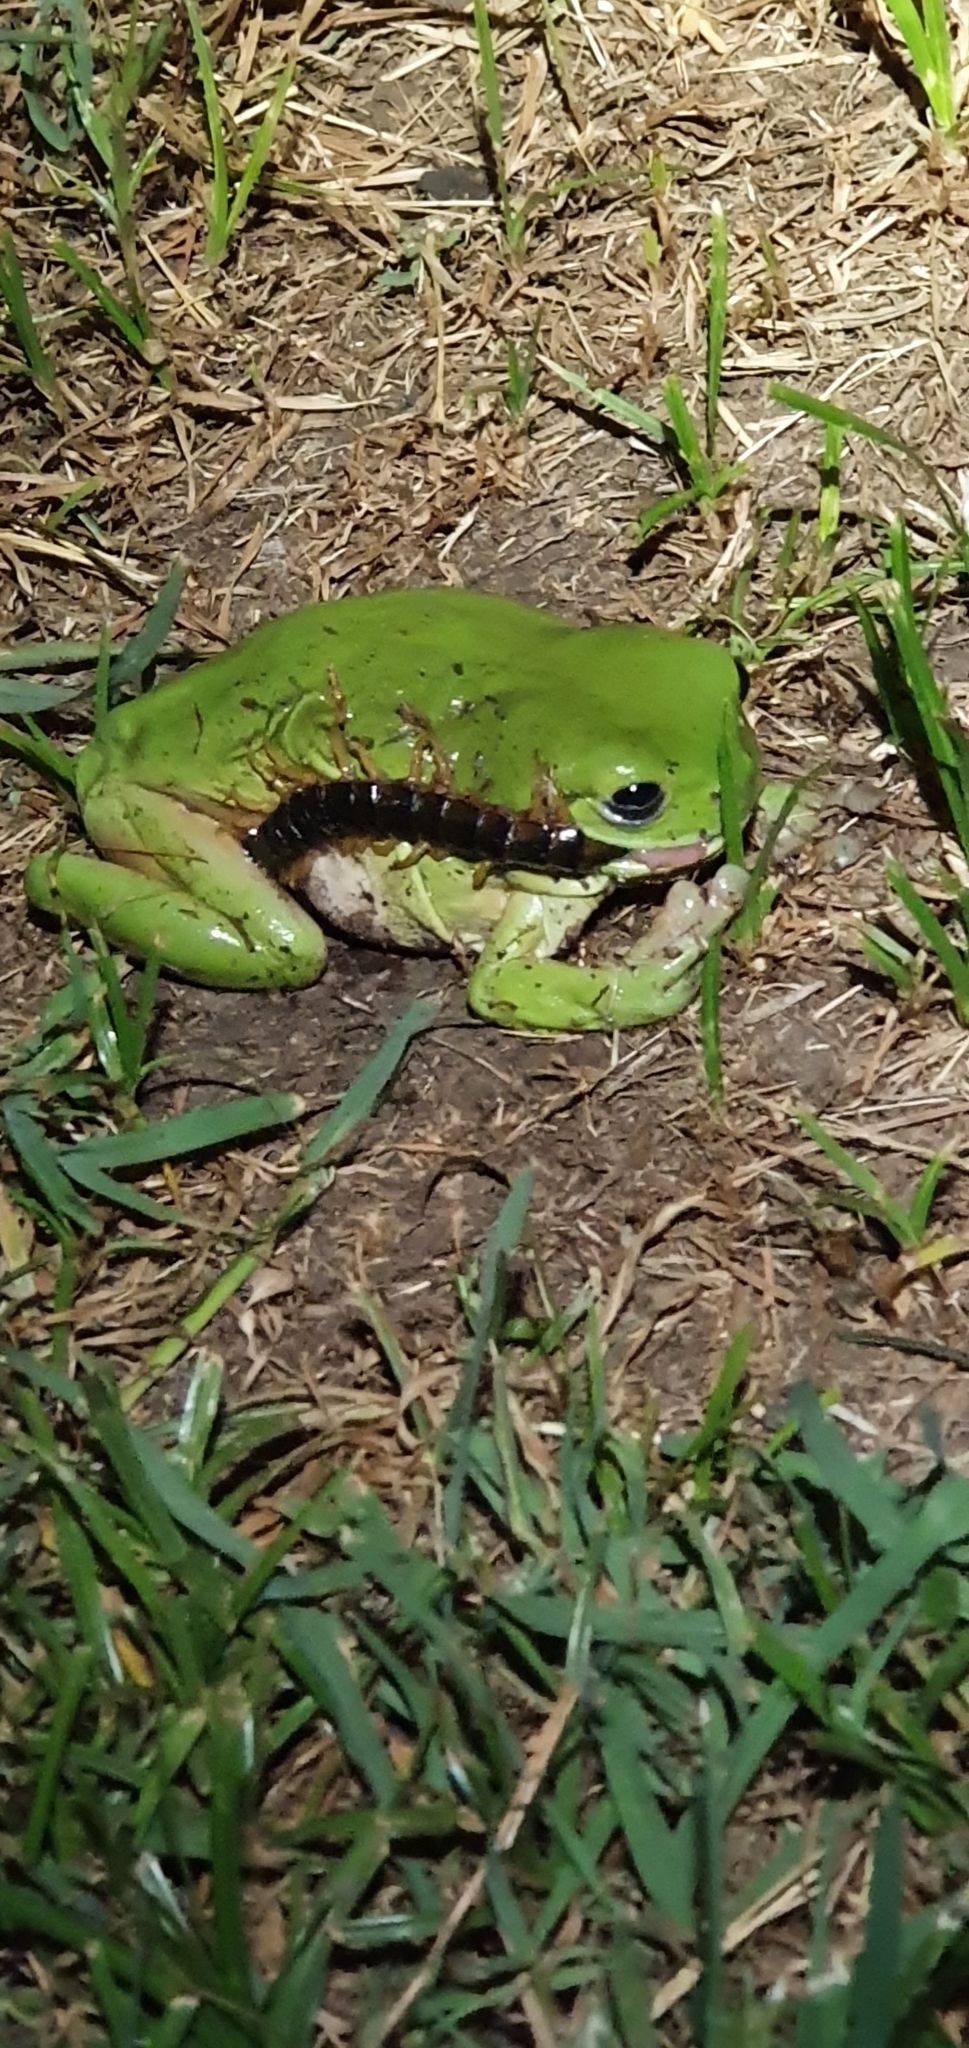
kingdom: Animalia
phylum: Chordata
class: Amphibia
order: Anura
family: Pelodryadidae
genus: Ranoidea
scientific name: Ranoidea caerulea
